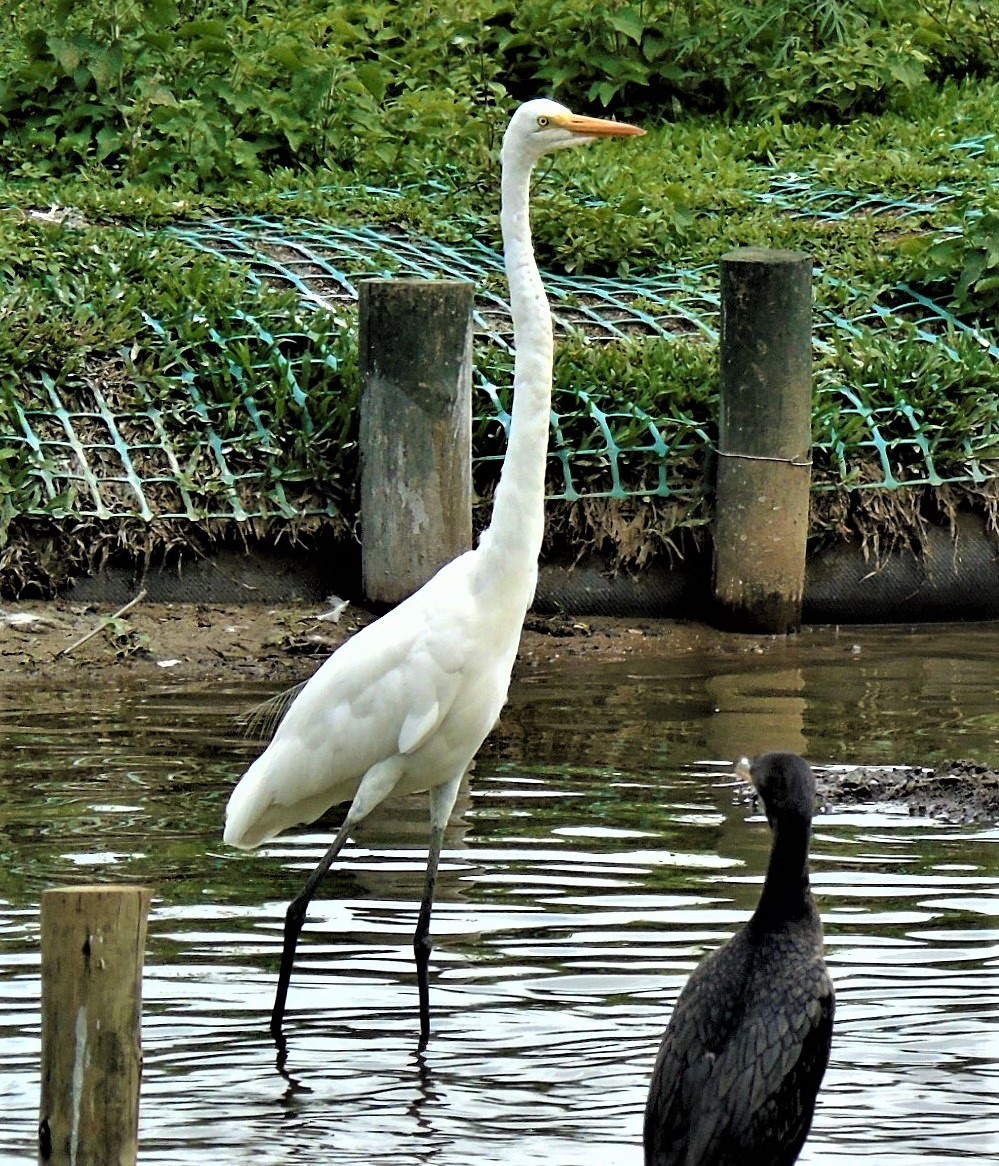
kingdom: Animalia
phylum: Chordata
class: Aves
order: Pelecaniformes
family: Ardeidae
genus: Ardea
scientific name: Ardea alba
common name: Great egret
